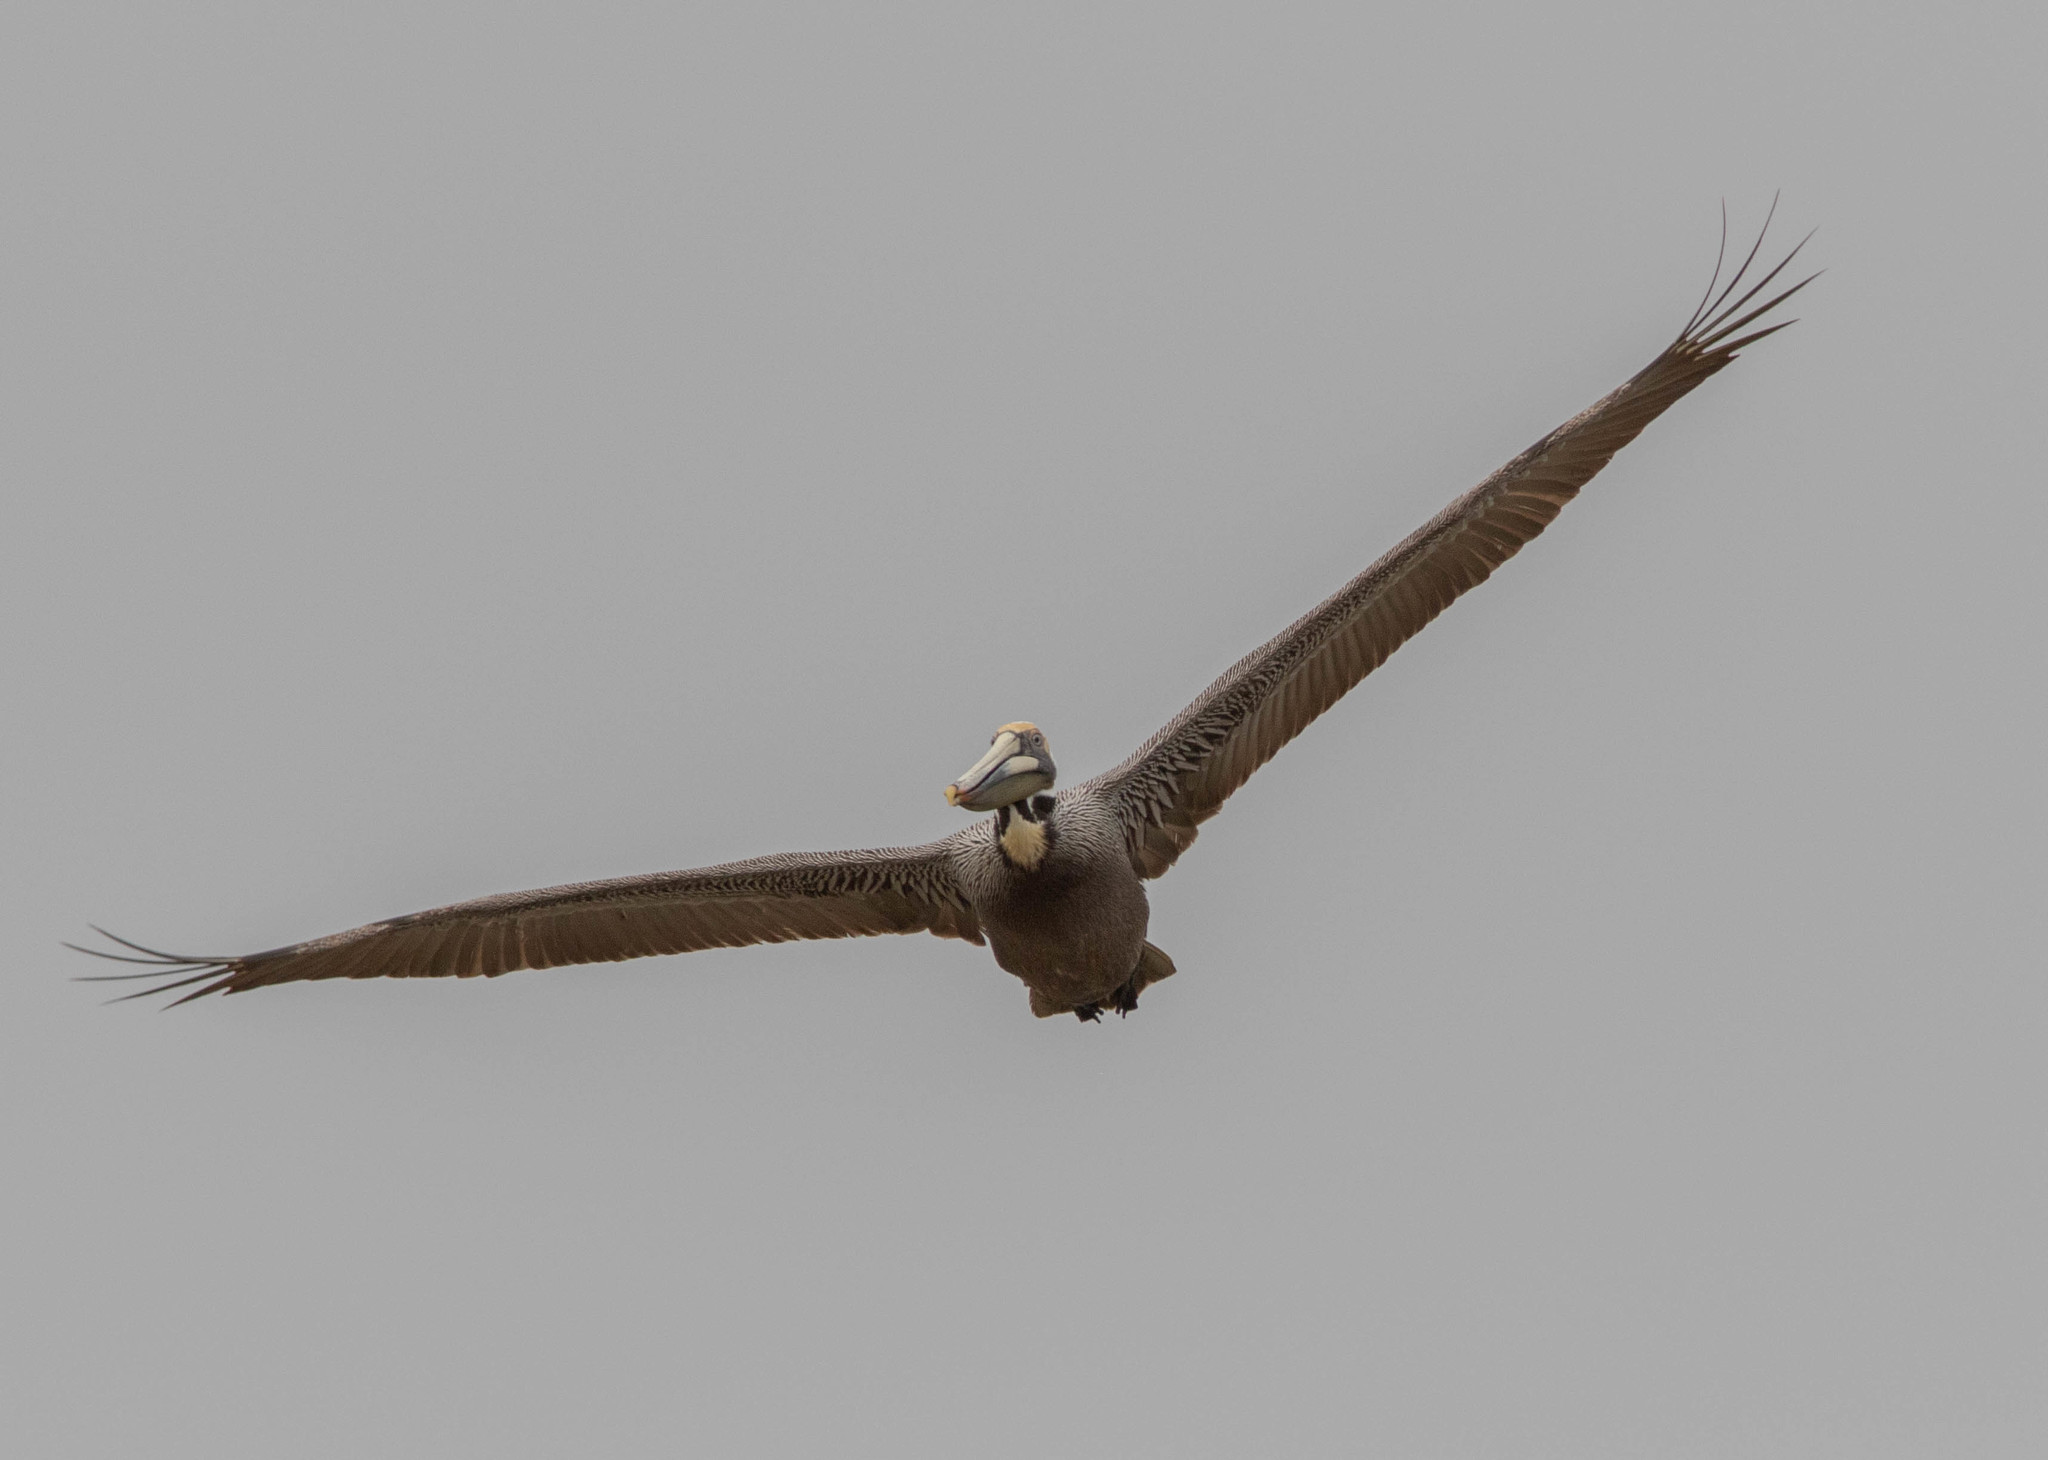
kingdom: Animalia
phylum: Chordata
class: Aves
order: Pelecaniformes
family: Pelecanidae
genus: Pelecanus
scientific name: Pelecanus occidentalis
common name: Brown pelican
